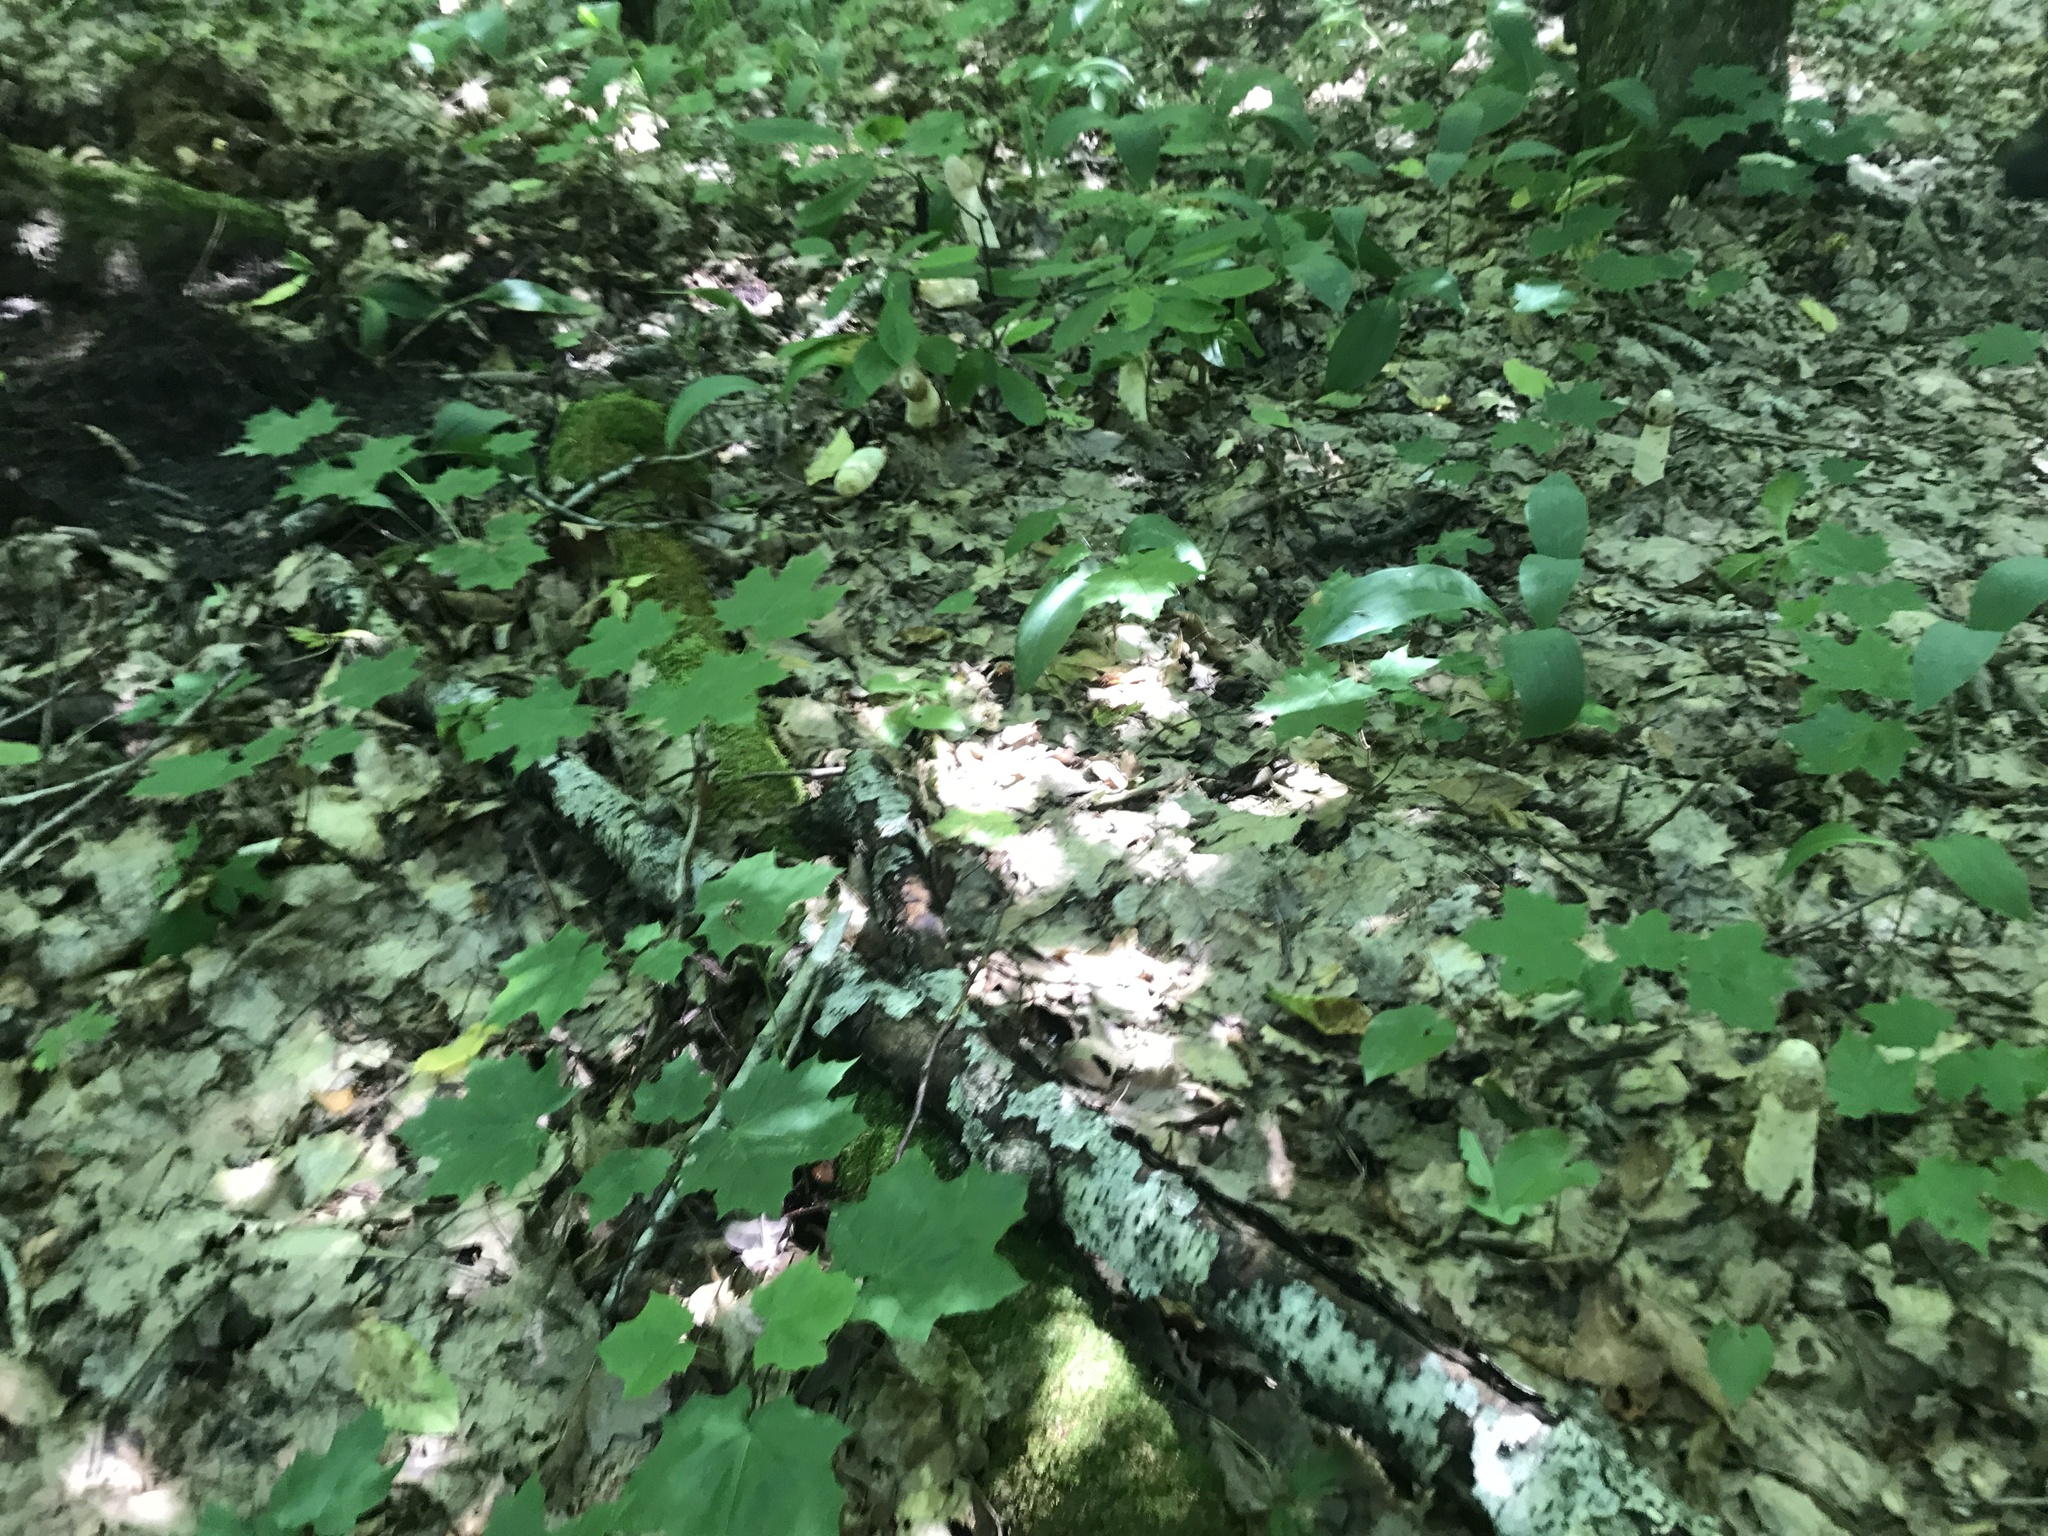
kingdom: Fungi
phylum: Basidiomycota
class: Agaricomycetes
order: Phallales
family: Phallaceae
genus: Phallus
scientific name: Phallus impudicus
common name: Common stinkhorn
